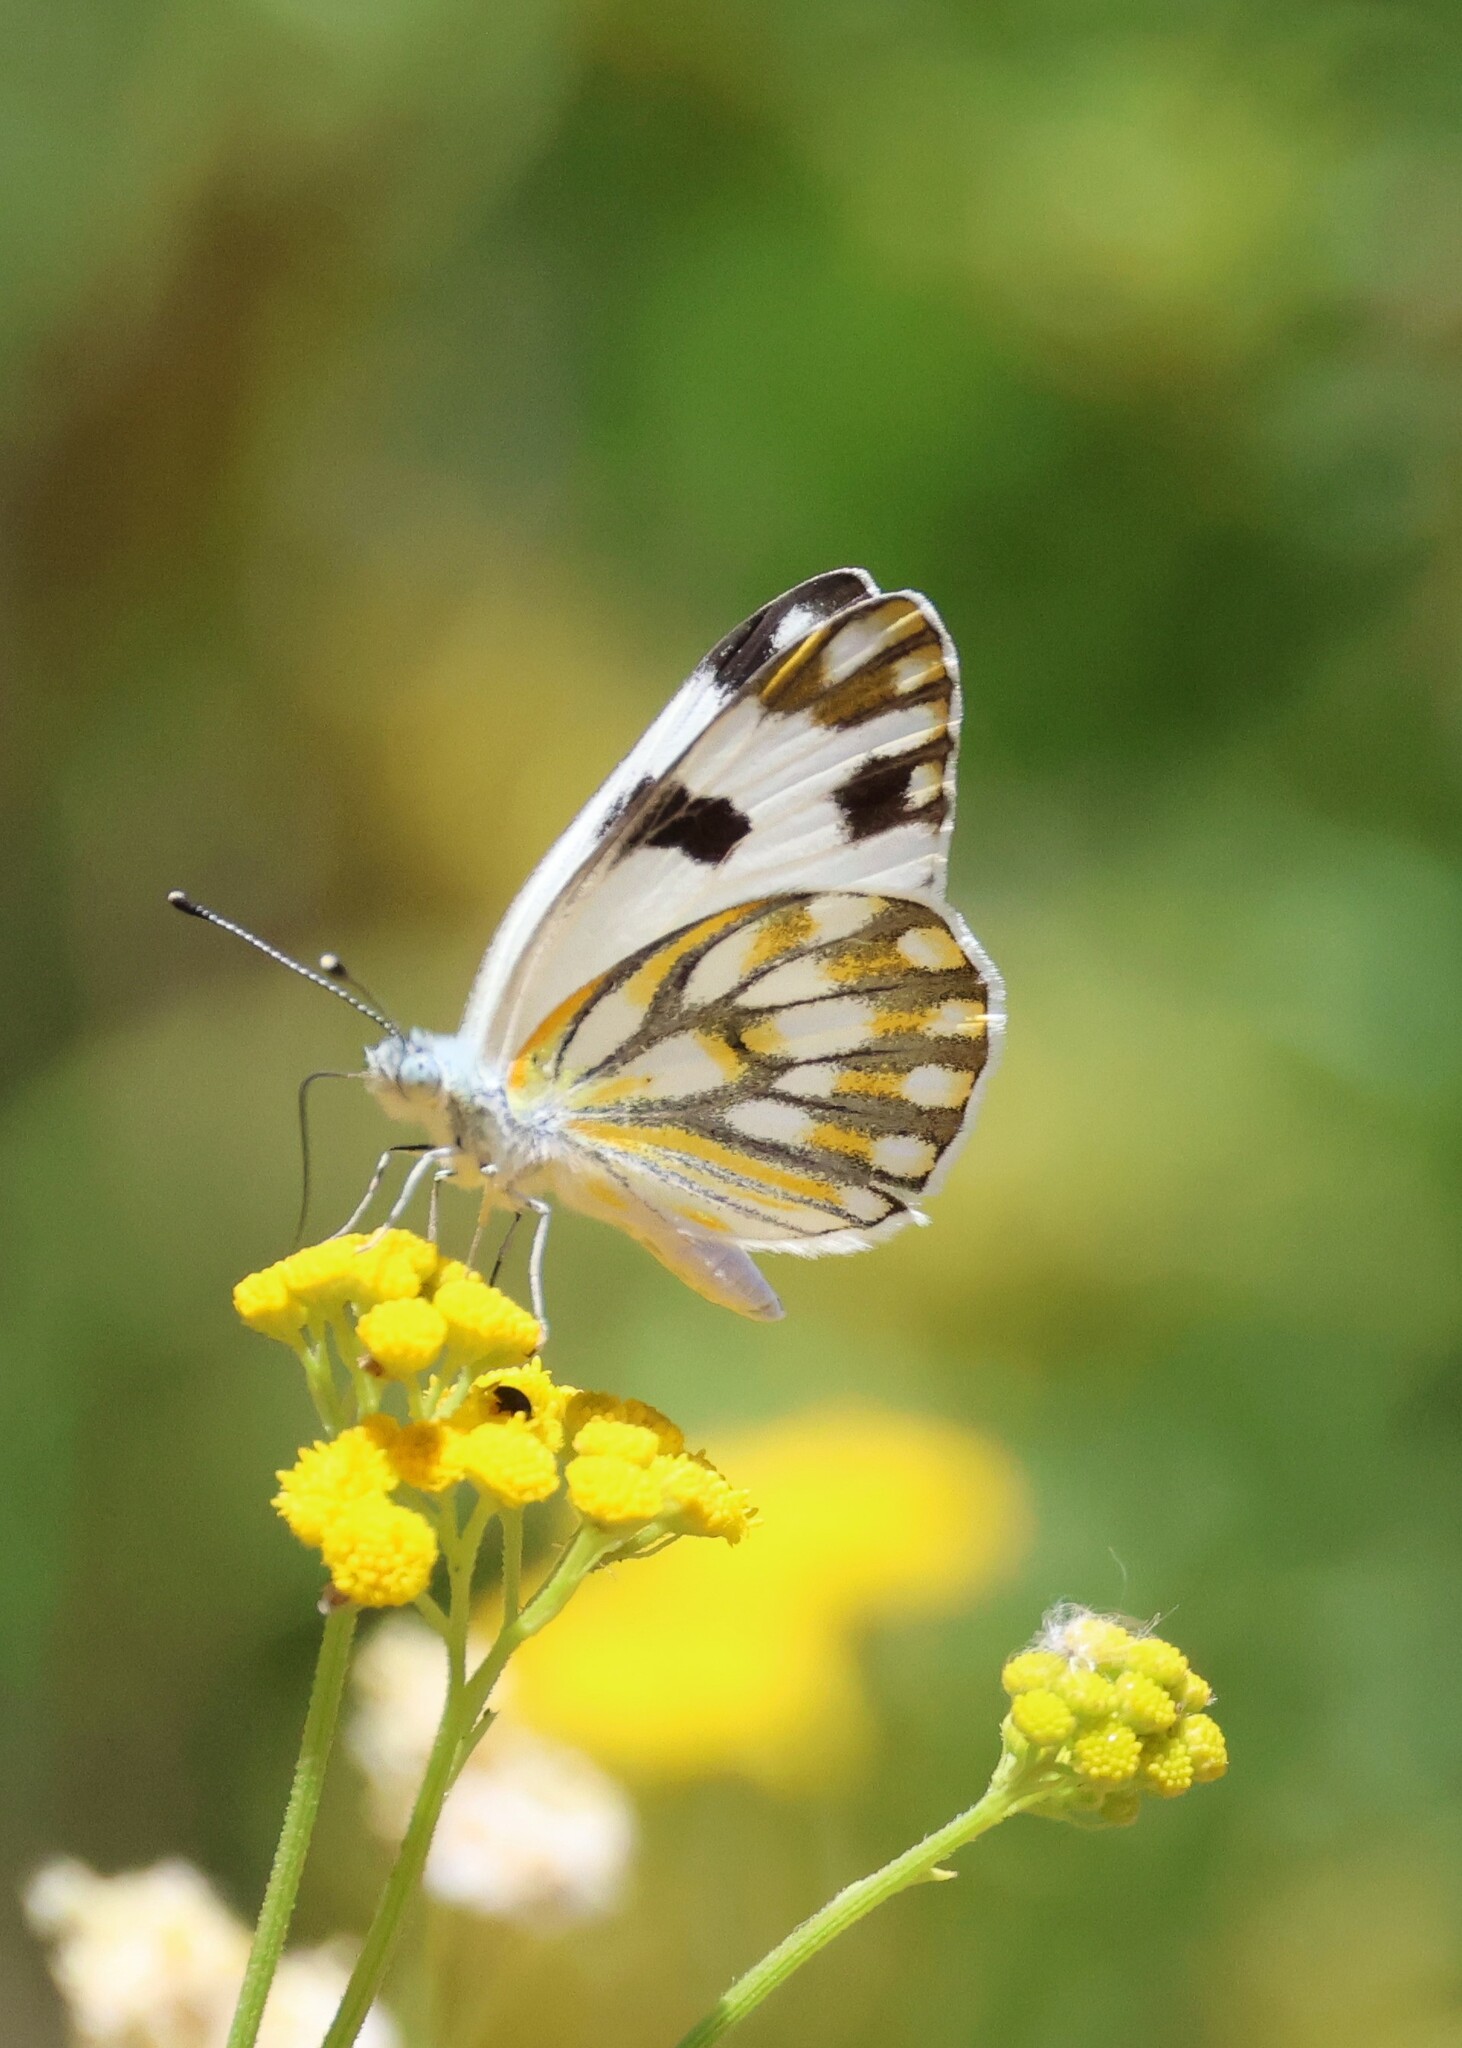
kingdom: Animalia
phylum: Arthropoda
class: Insecta
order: Lepidoptera
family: Pieridae
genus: Pontia
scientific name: Pontia helice
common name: Meadow white
